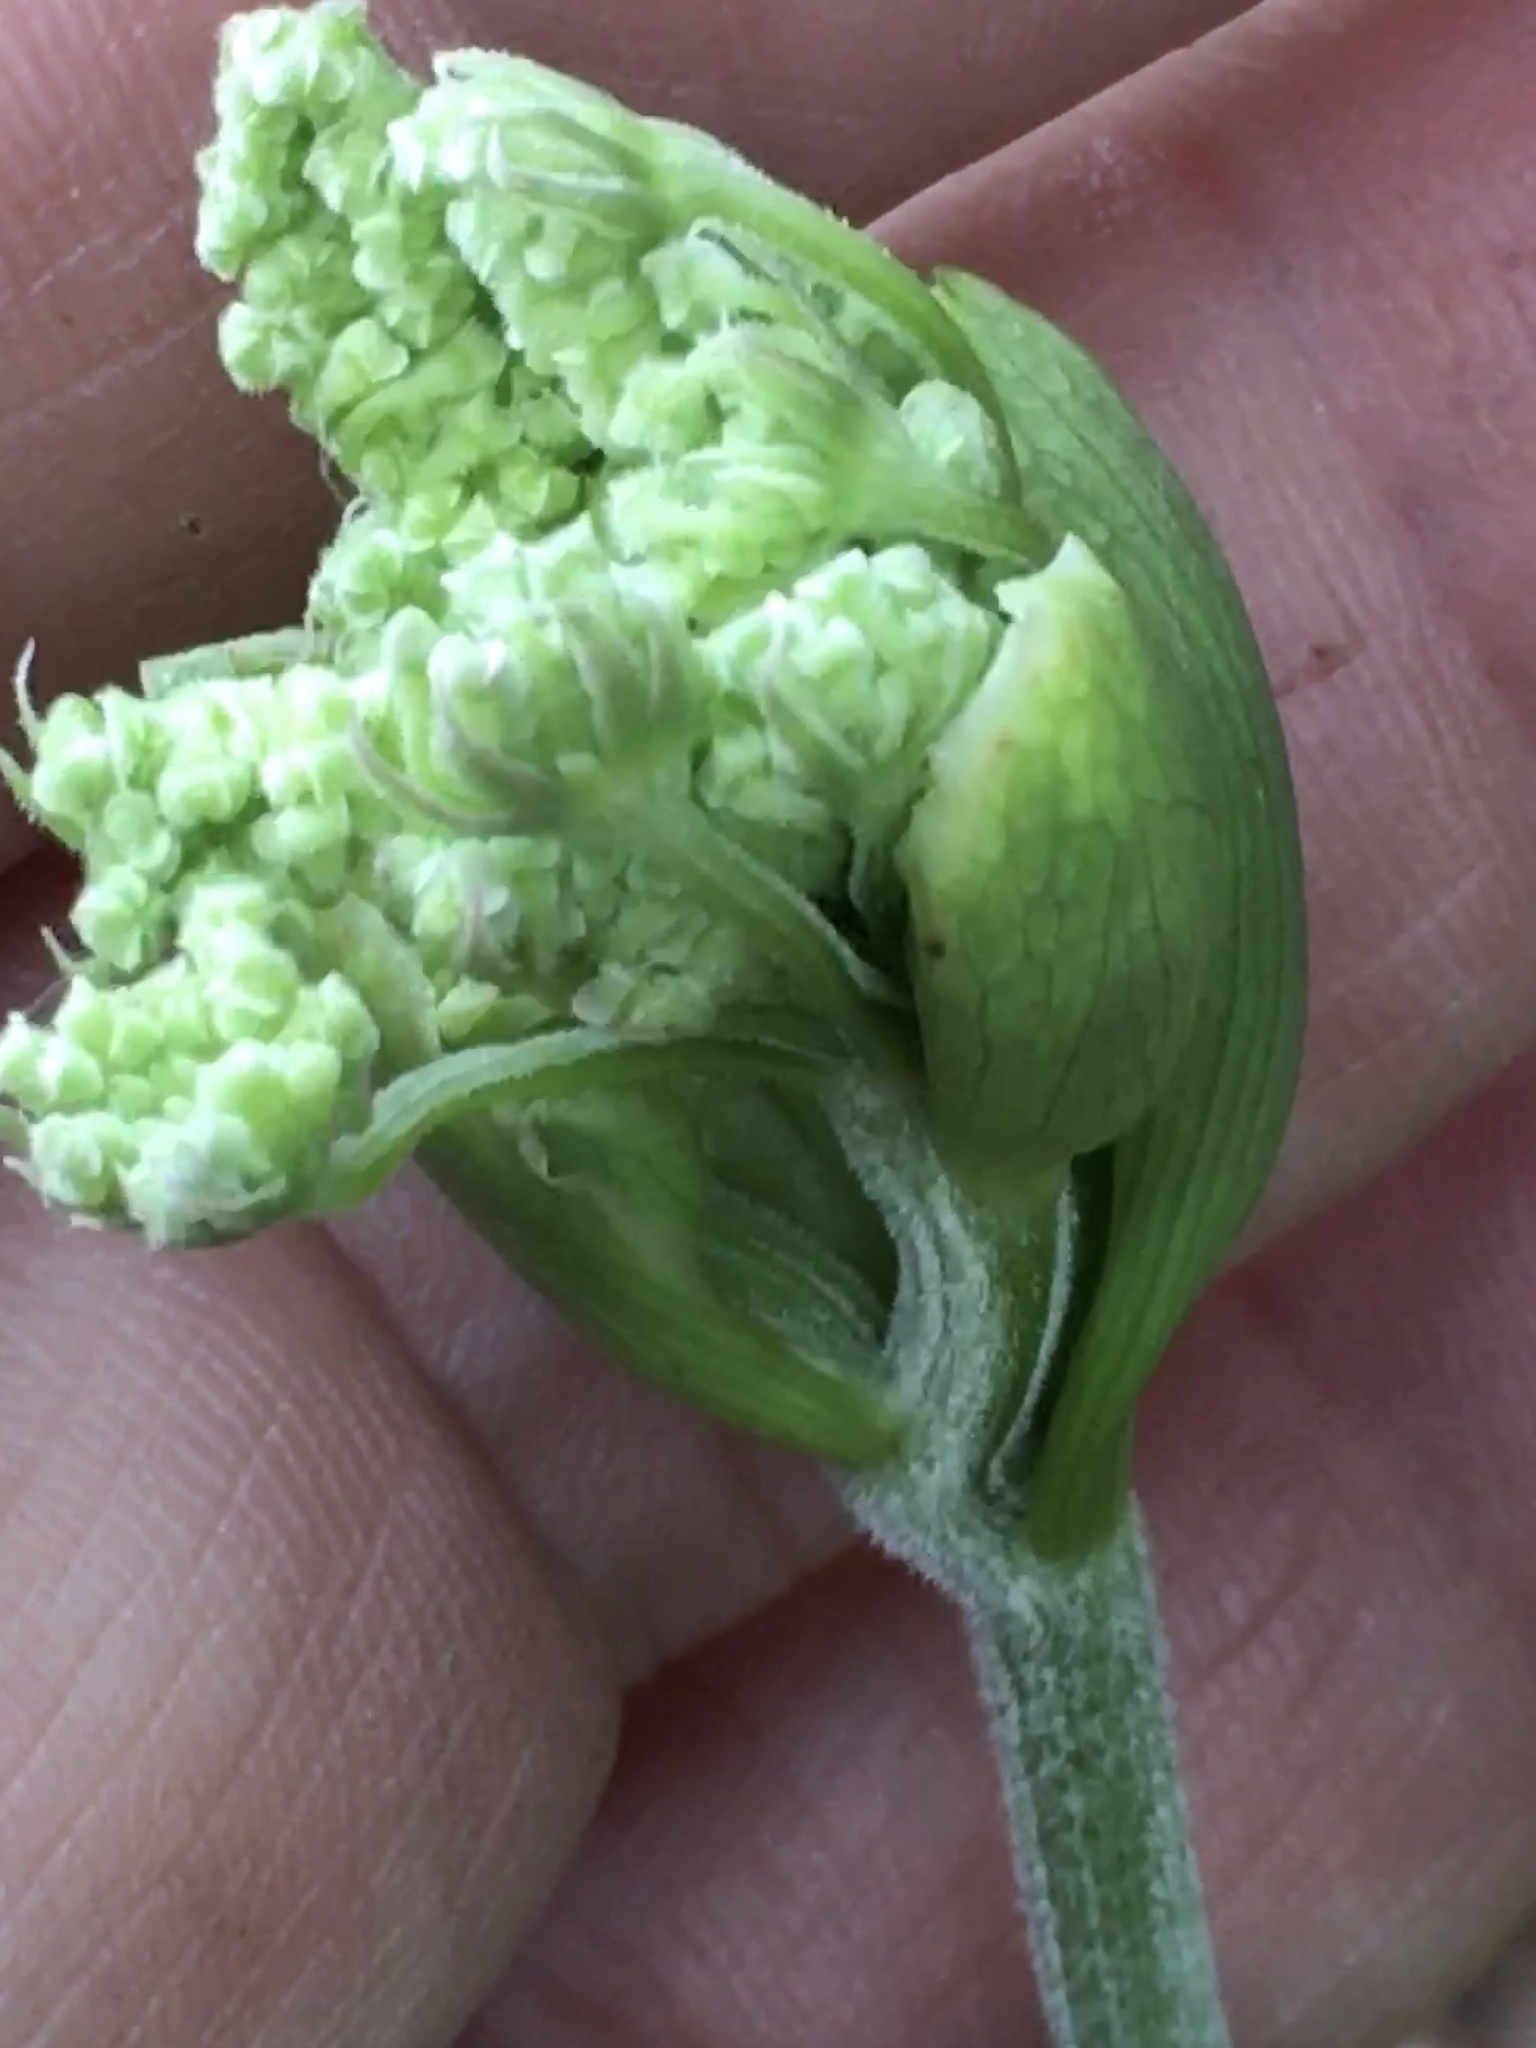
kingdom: Plantae
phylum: Tracheophyta
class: Magnoliopsida
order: Apiales
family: Apiaceae
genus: Angelica
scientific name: Angelica venenosa
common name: Hairy angelica
